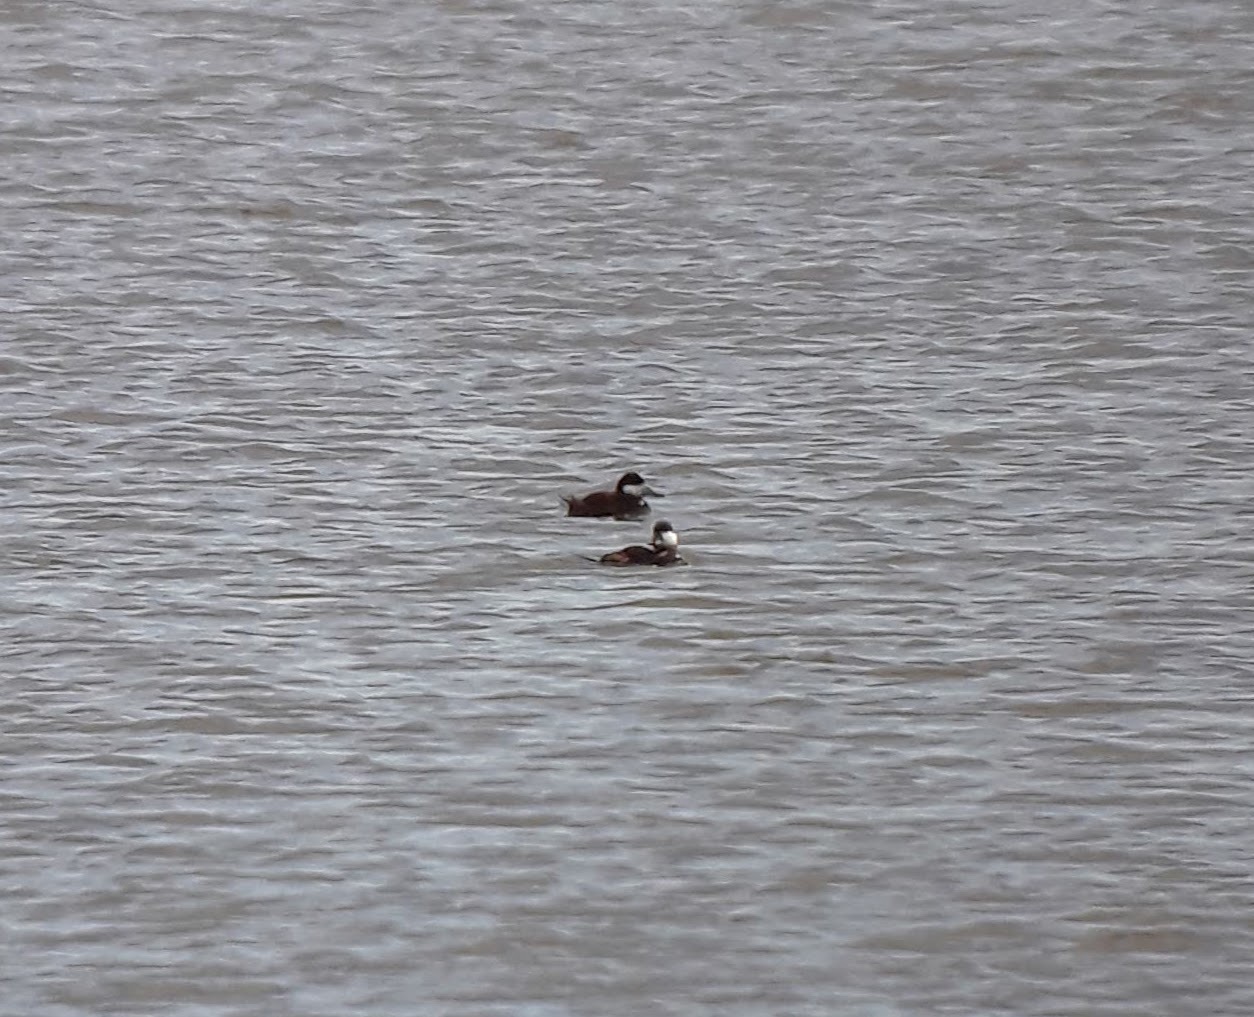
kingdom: Animalia
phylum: Chordata
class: Aves
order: Anseriformes
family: Anatidae
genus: Oxyura
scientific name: Oxyura jamaicensis
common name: Ruddy duck
